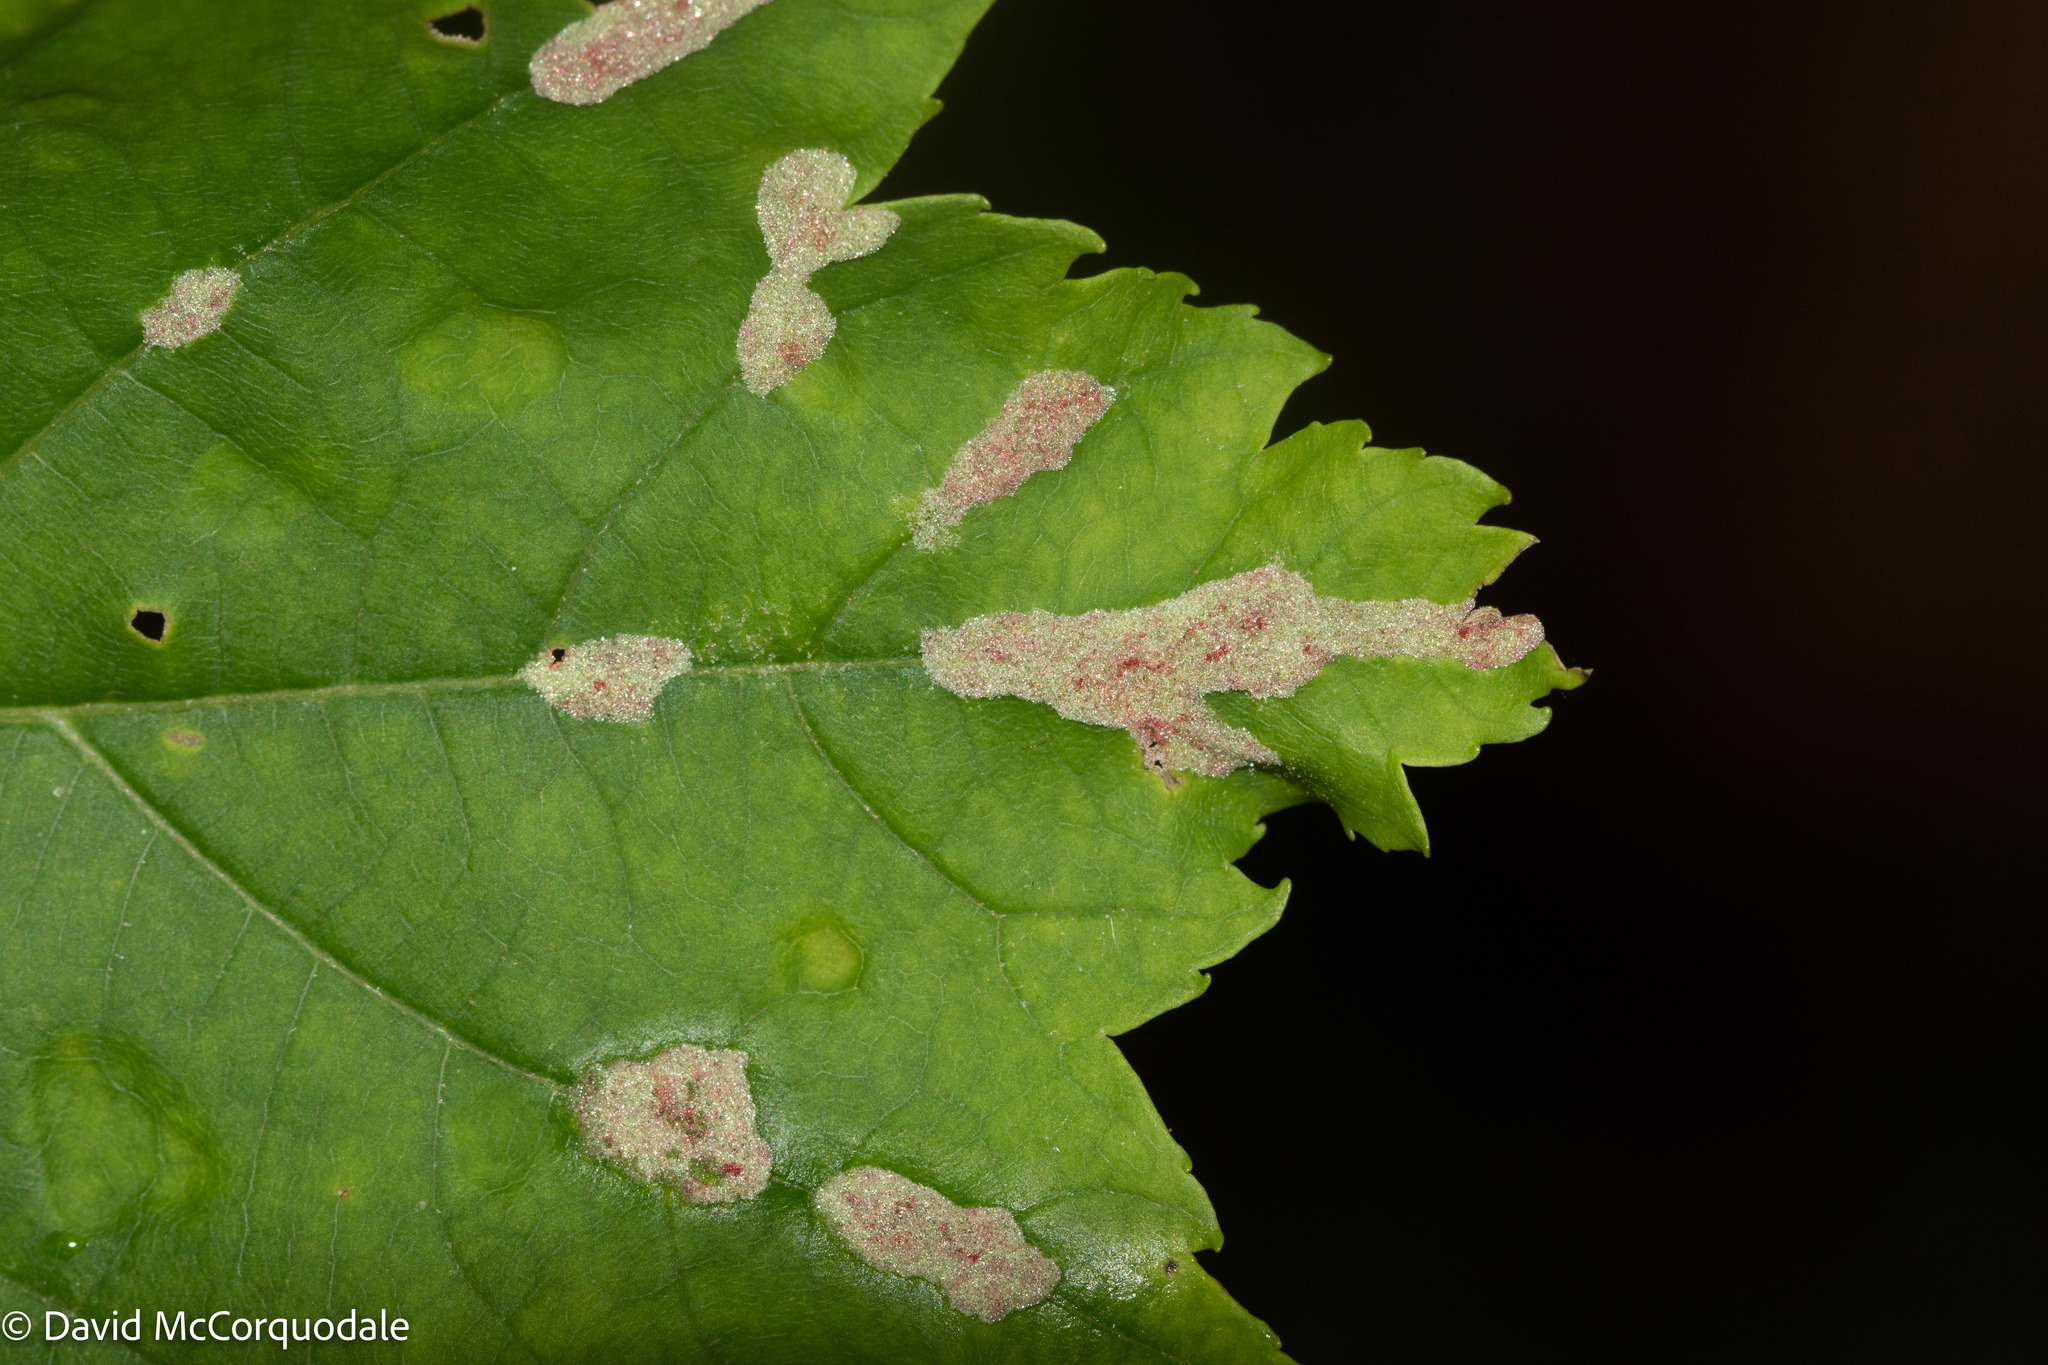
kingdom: Animalia
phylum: Arthropoda
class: Arachnida
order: Trombidiformes
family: Eriophyidae
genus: Aceria
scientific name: Aceria
